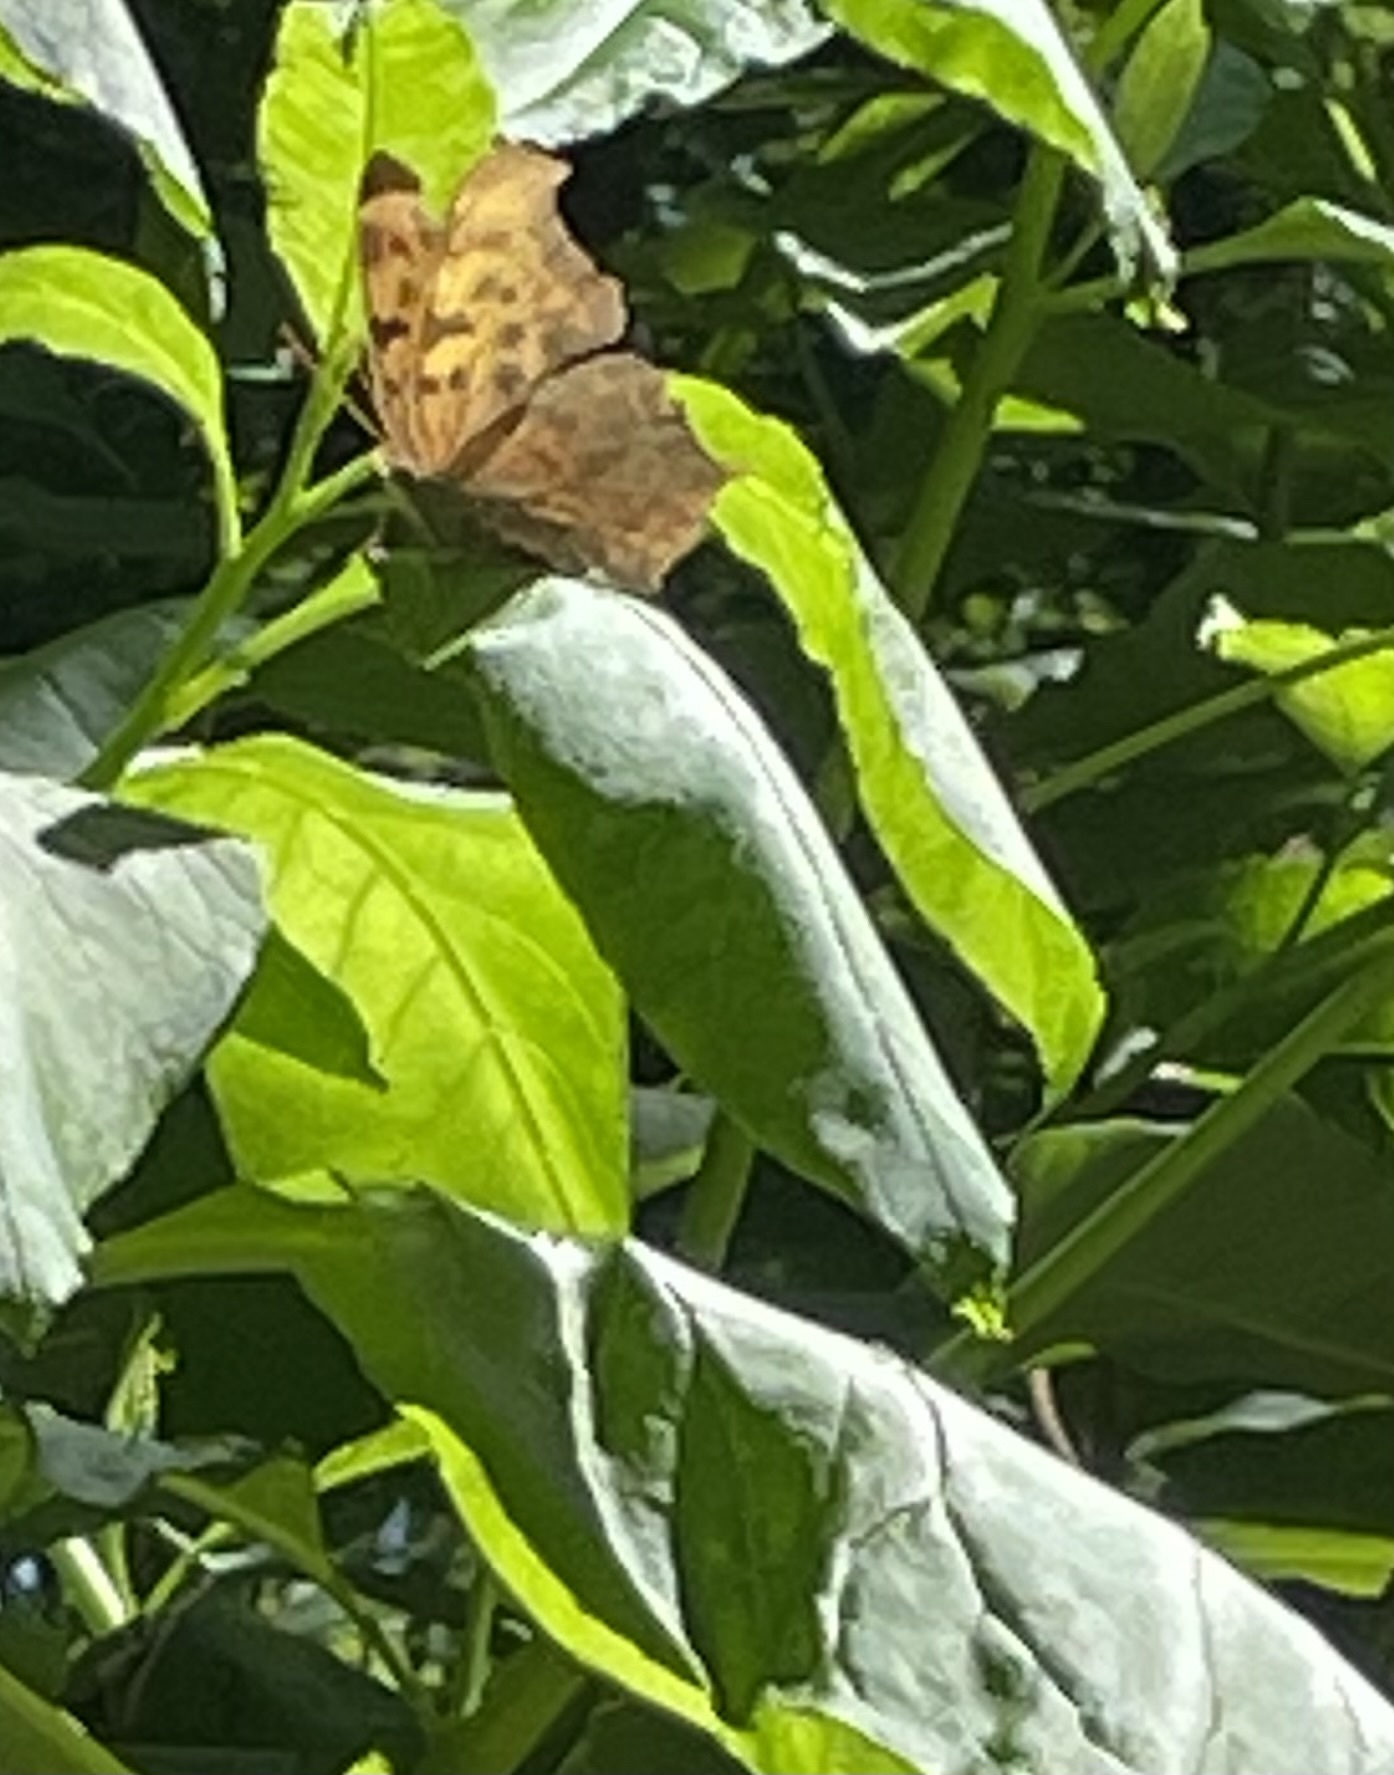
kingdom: Animalia
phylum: Arthropoda
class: Insecta
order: Lepidoptera
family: Nymphalidae
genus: Polygonia
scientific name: Polygonia interrogationis
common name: Question mark
